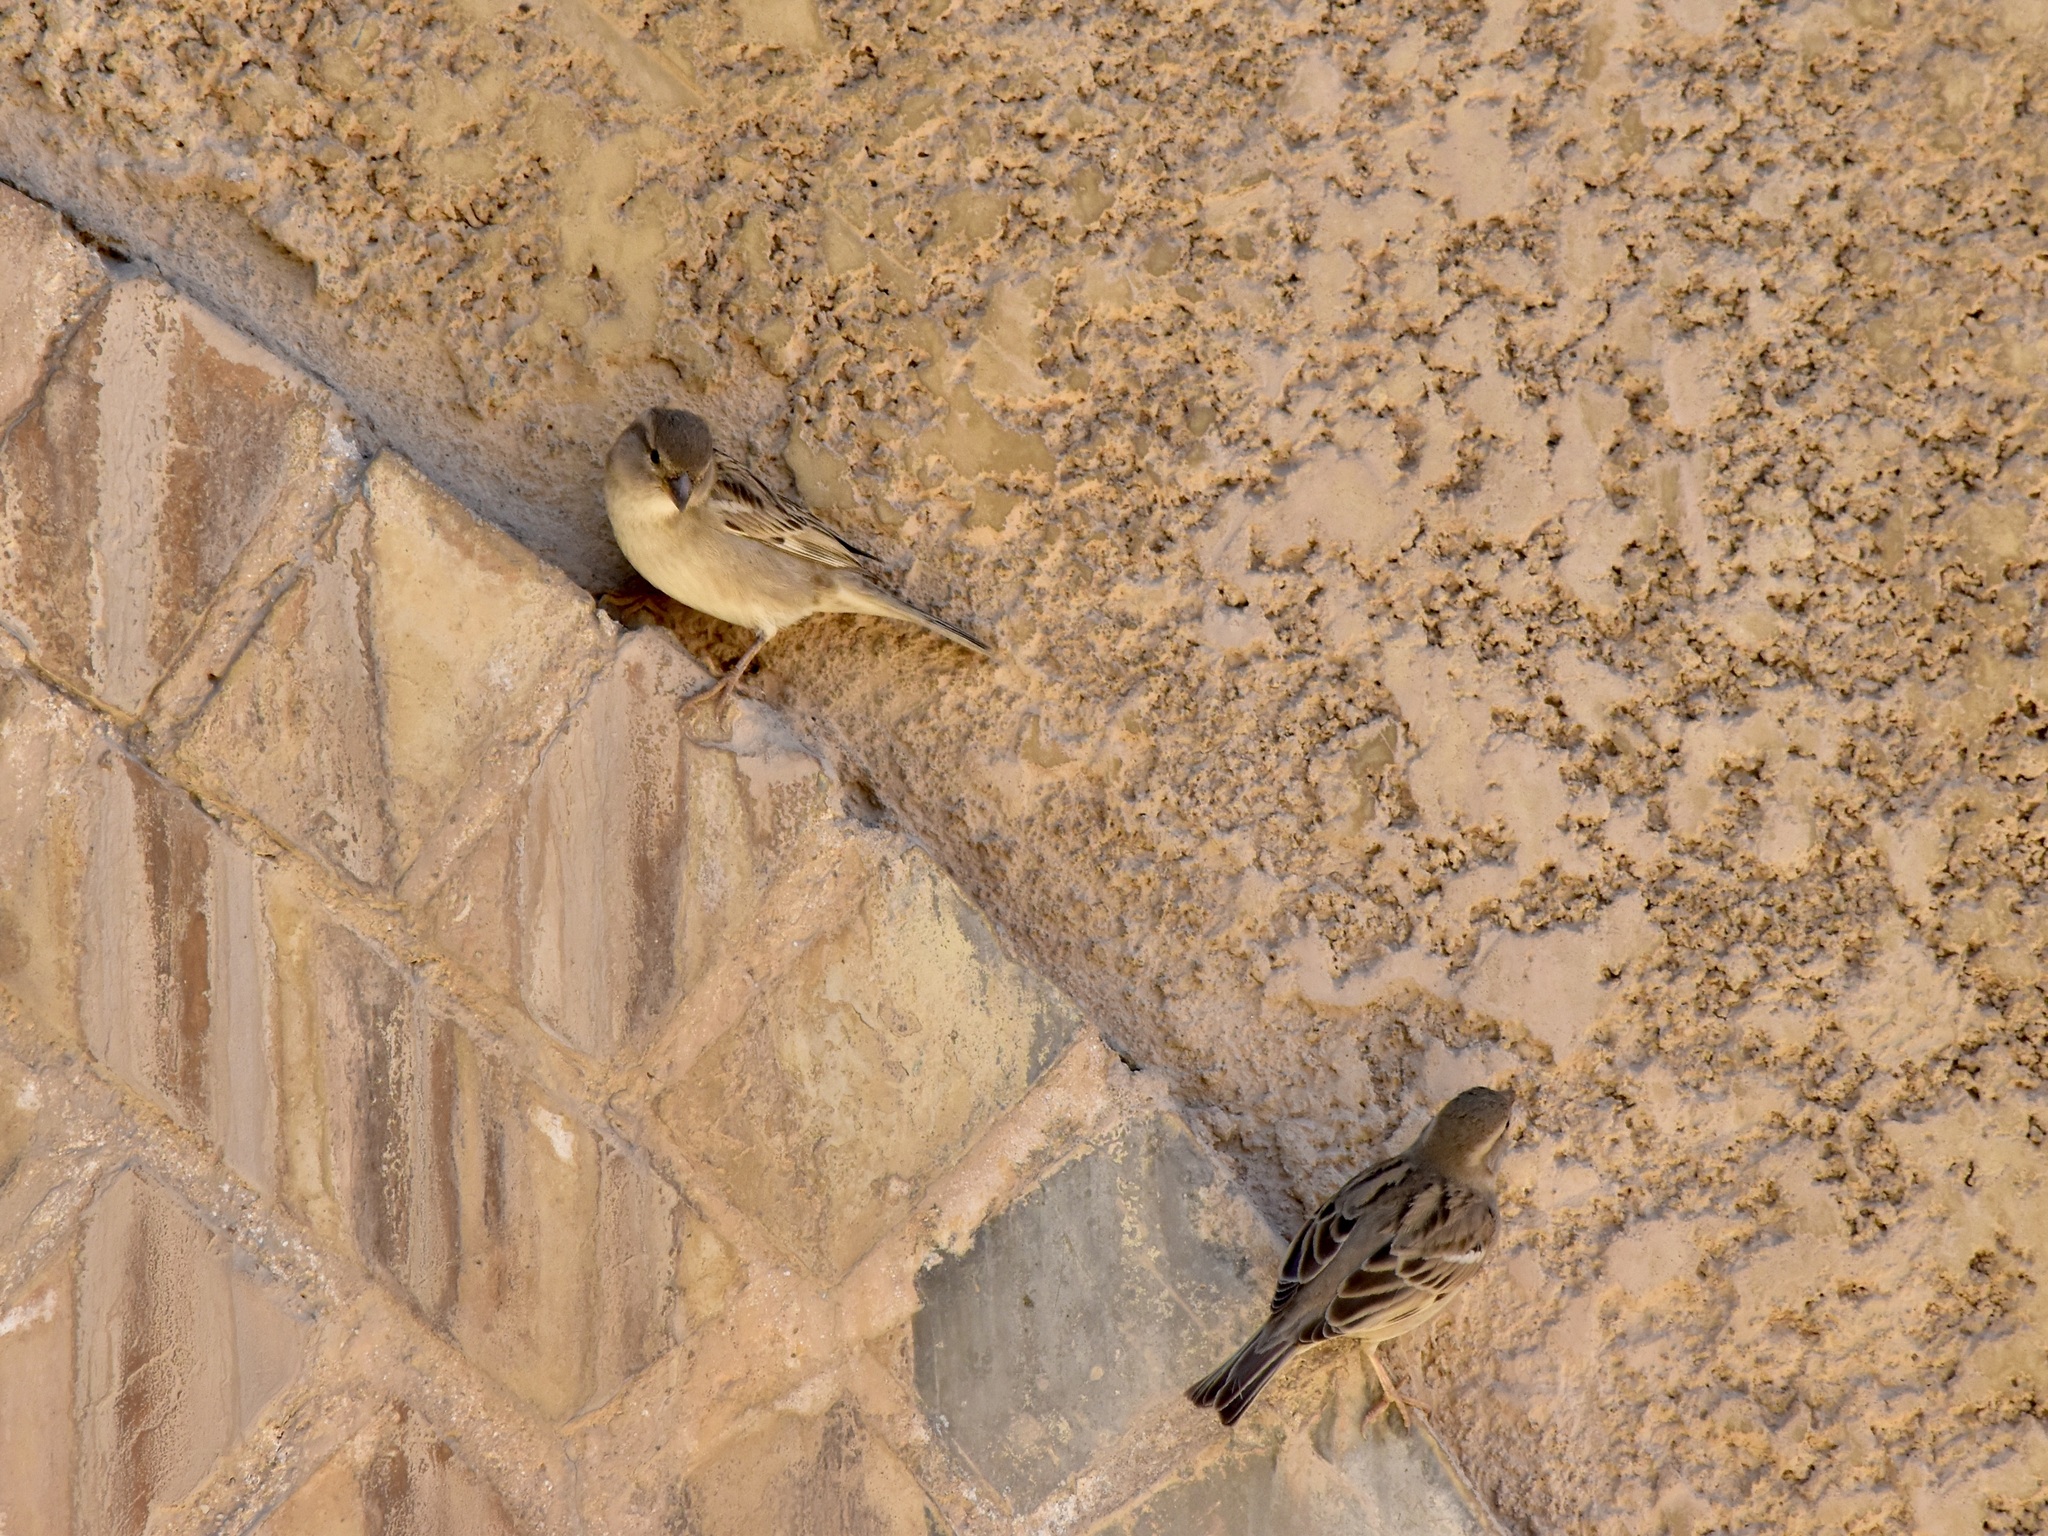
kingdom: Animalia
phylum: Chordata
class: Aves
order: Passeriformes
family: Passeridae
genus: Passer
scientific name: Passer domesticus
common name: House sparrow
